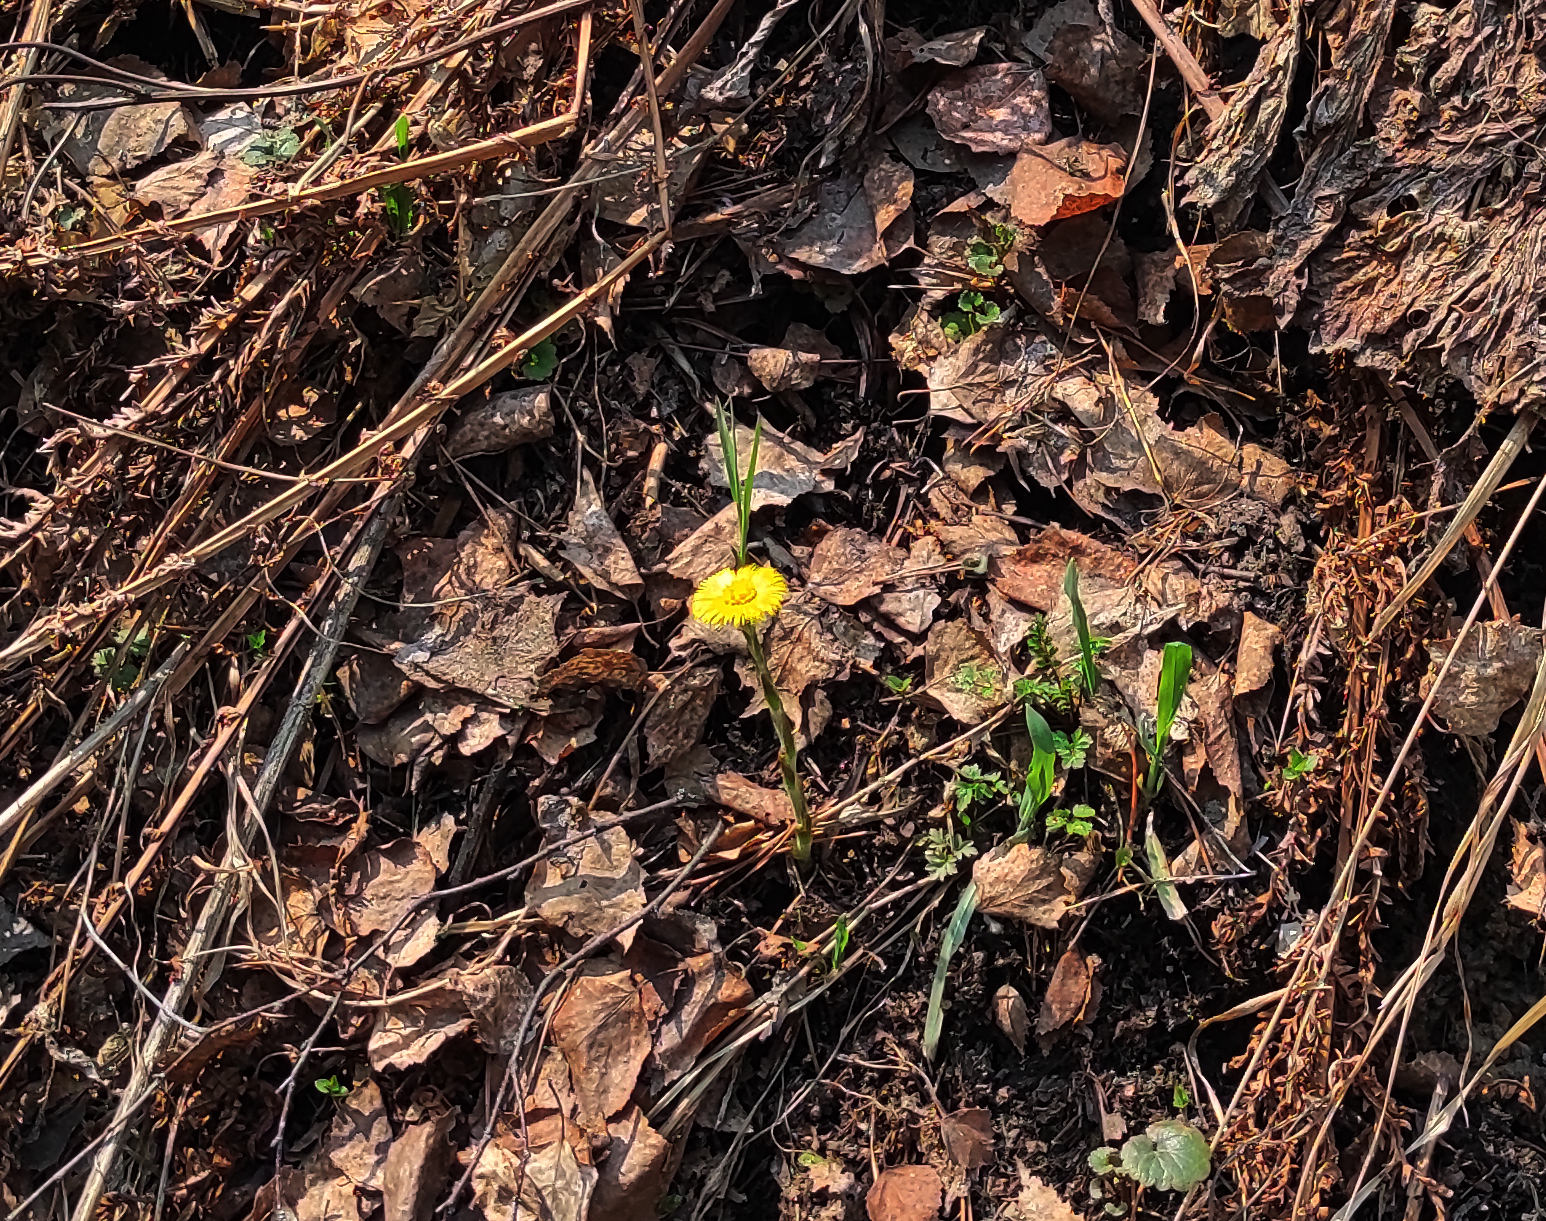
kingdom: Plantae
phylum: Tracheophyta
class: Magnoliopsida
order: Asterales
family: Asteraceae
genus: Tussilago
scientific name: Tussilago farfara
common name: Coltsfoot
